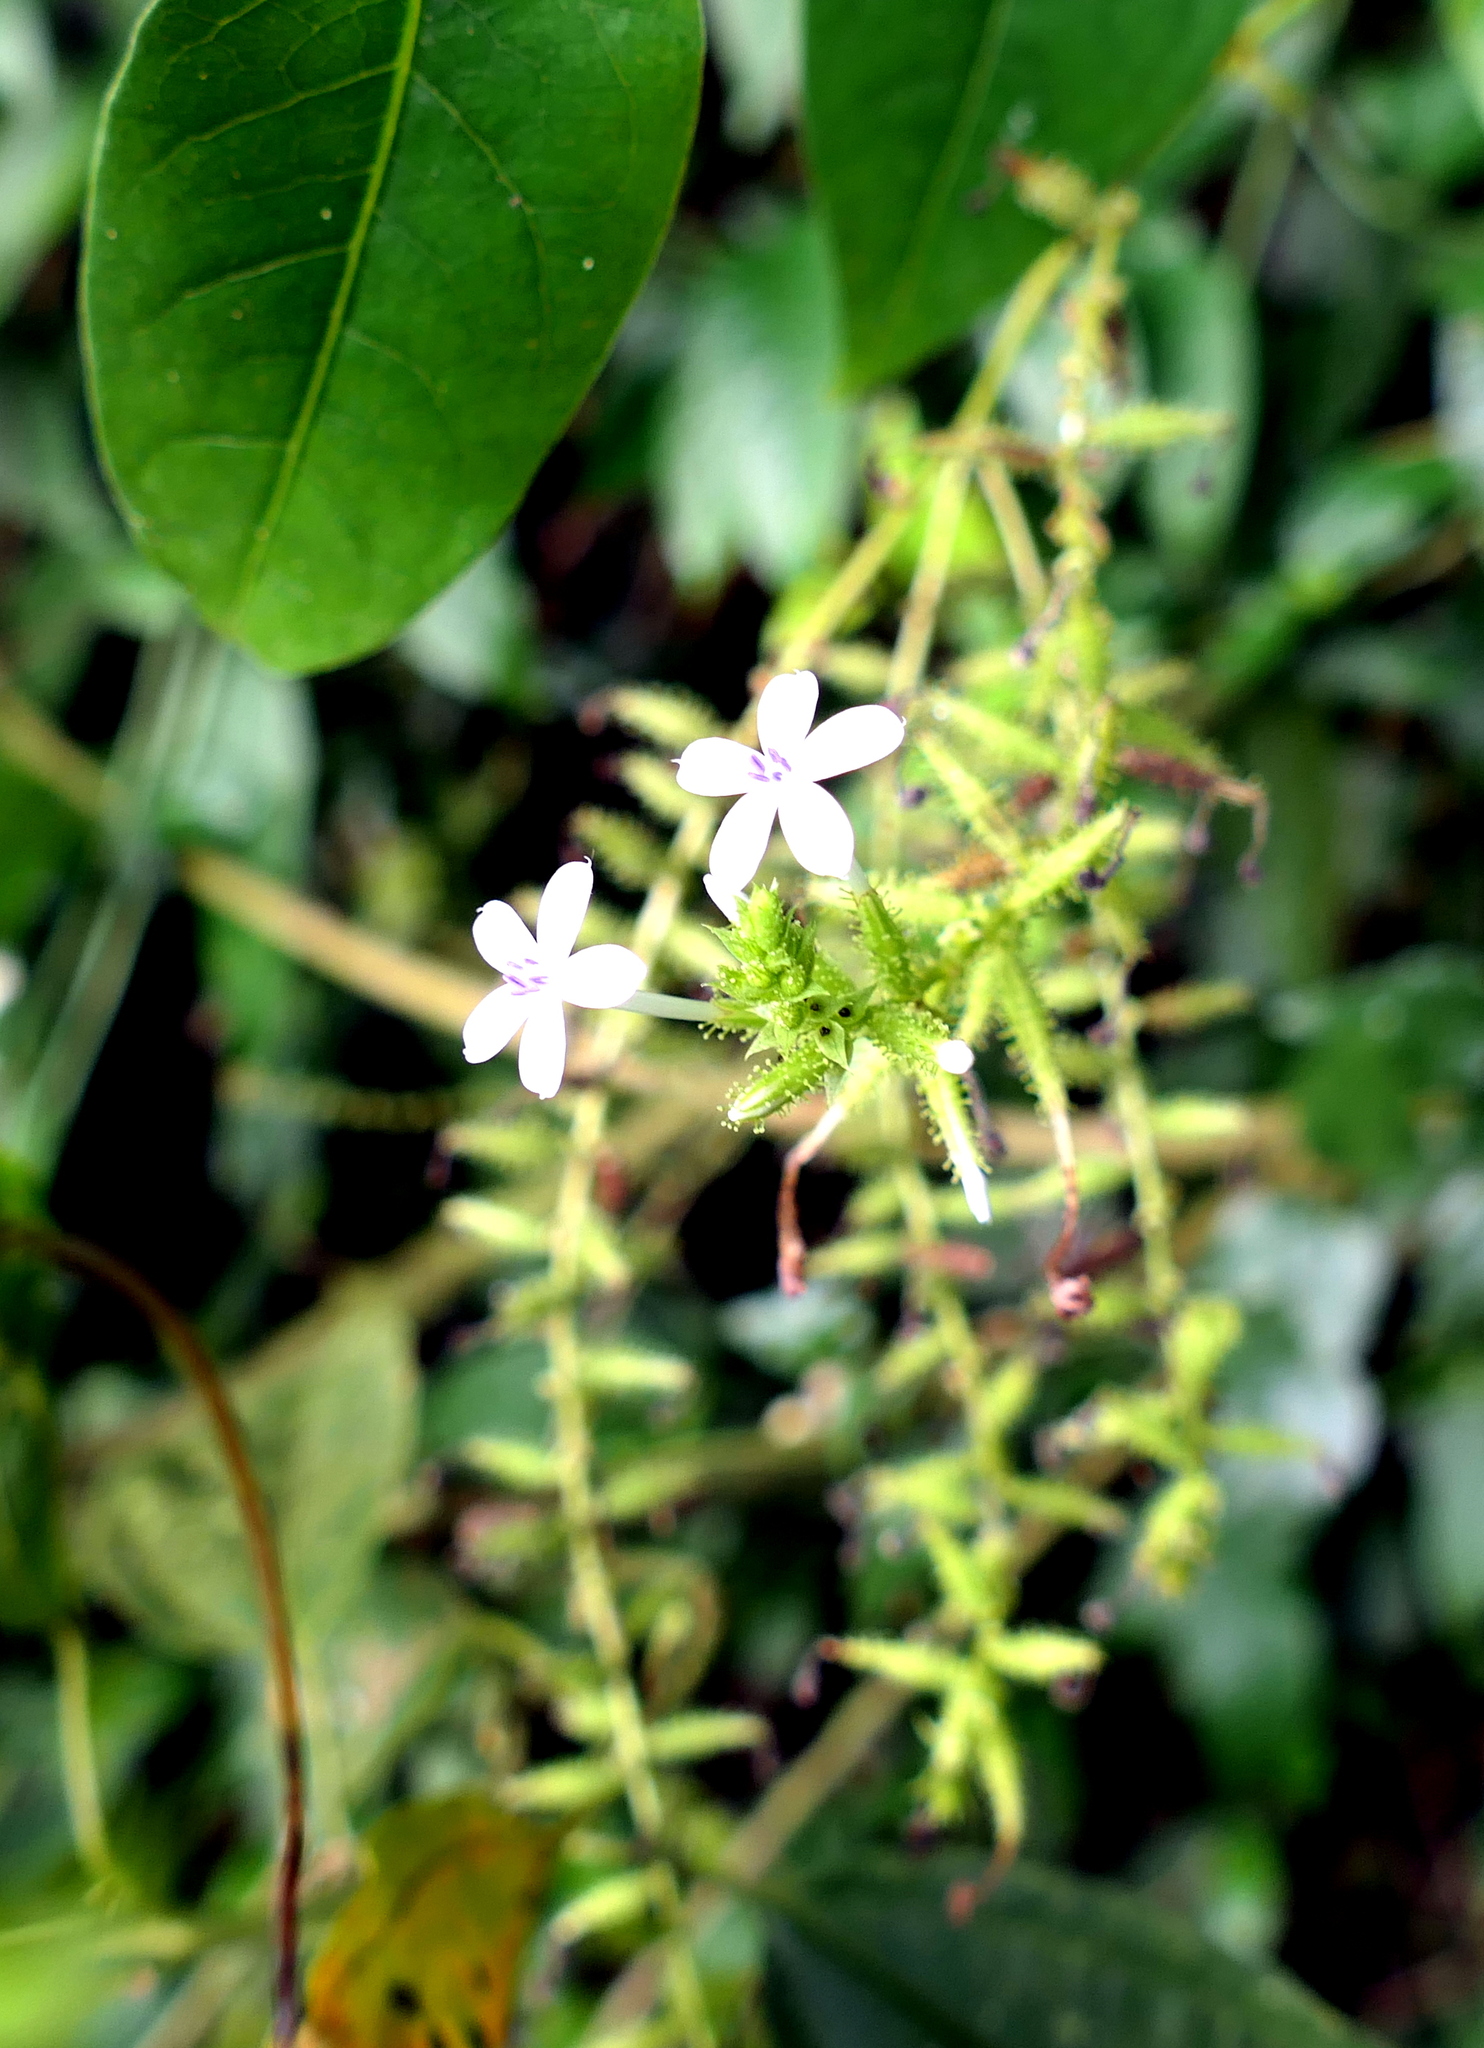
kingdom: Plantae
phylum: Tracheophyta
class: Magnoliopsida
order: Caryophyllales
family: Plumbaginaceae
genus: Plumbago
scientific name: Plumbago zeylanica
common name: Doctorbush
